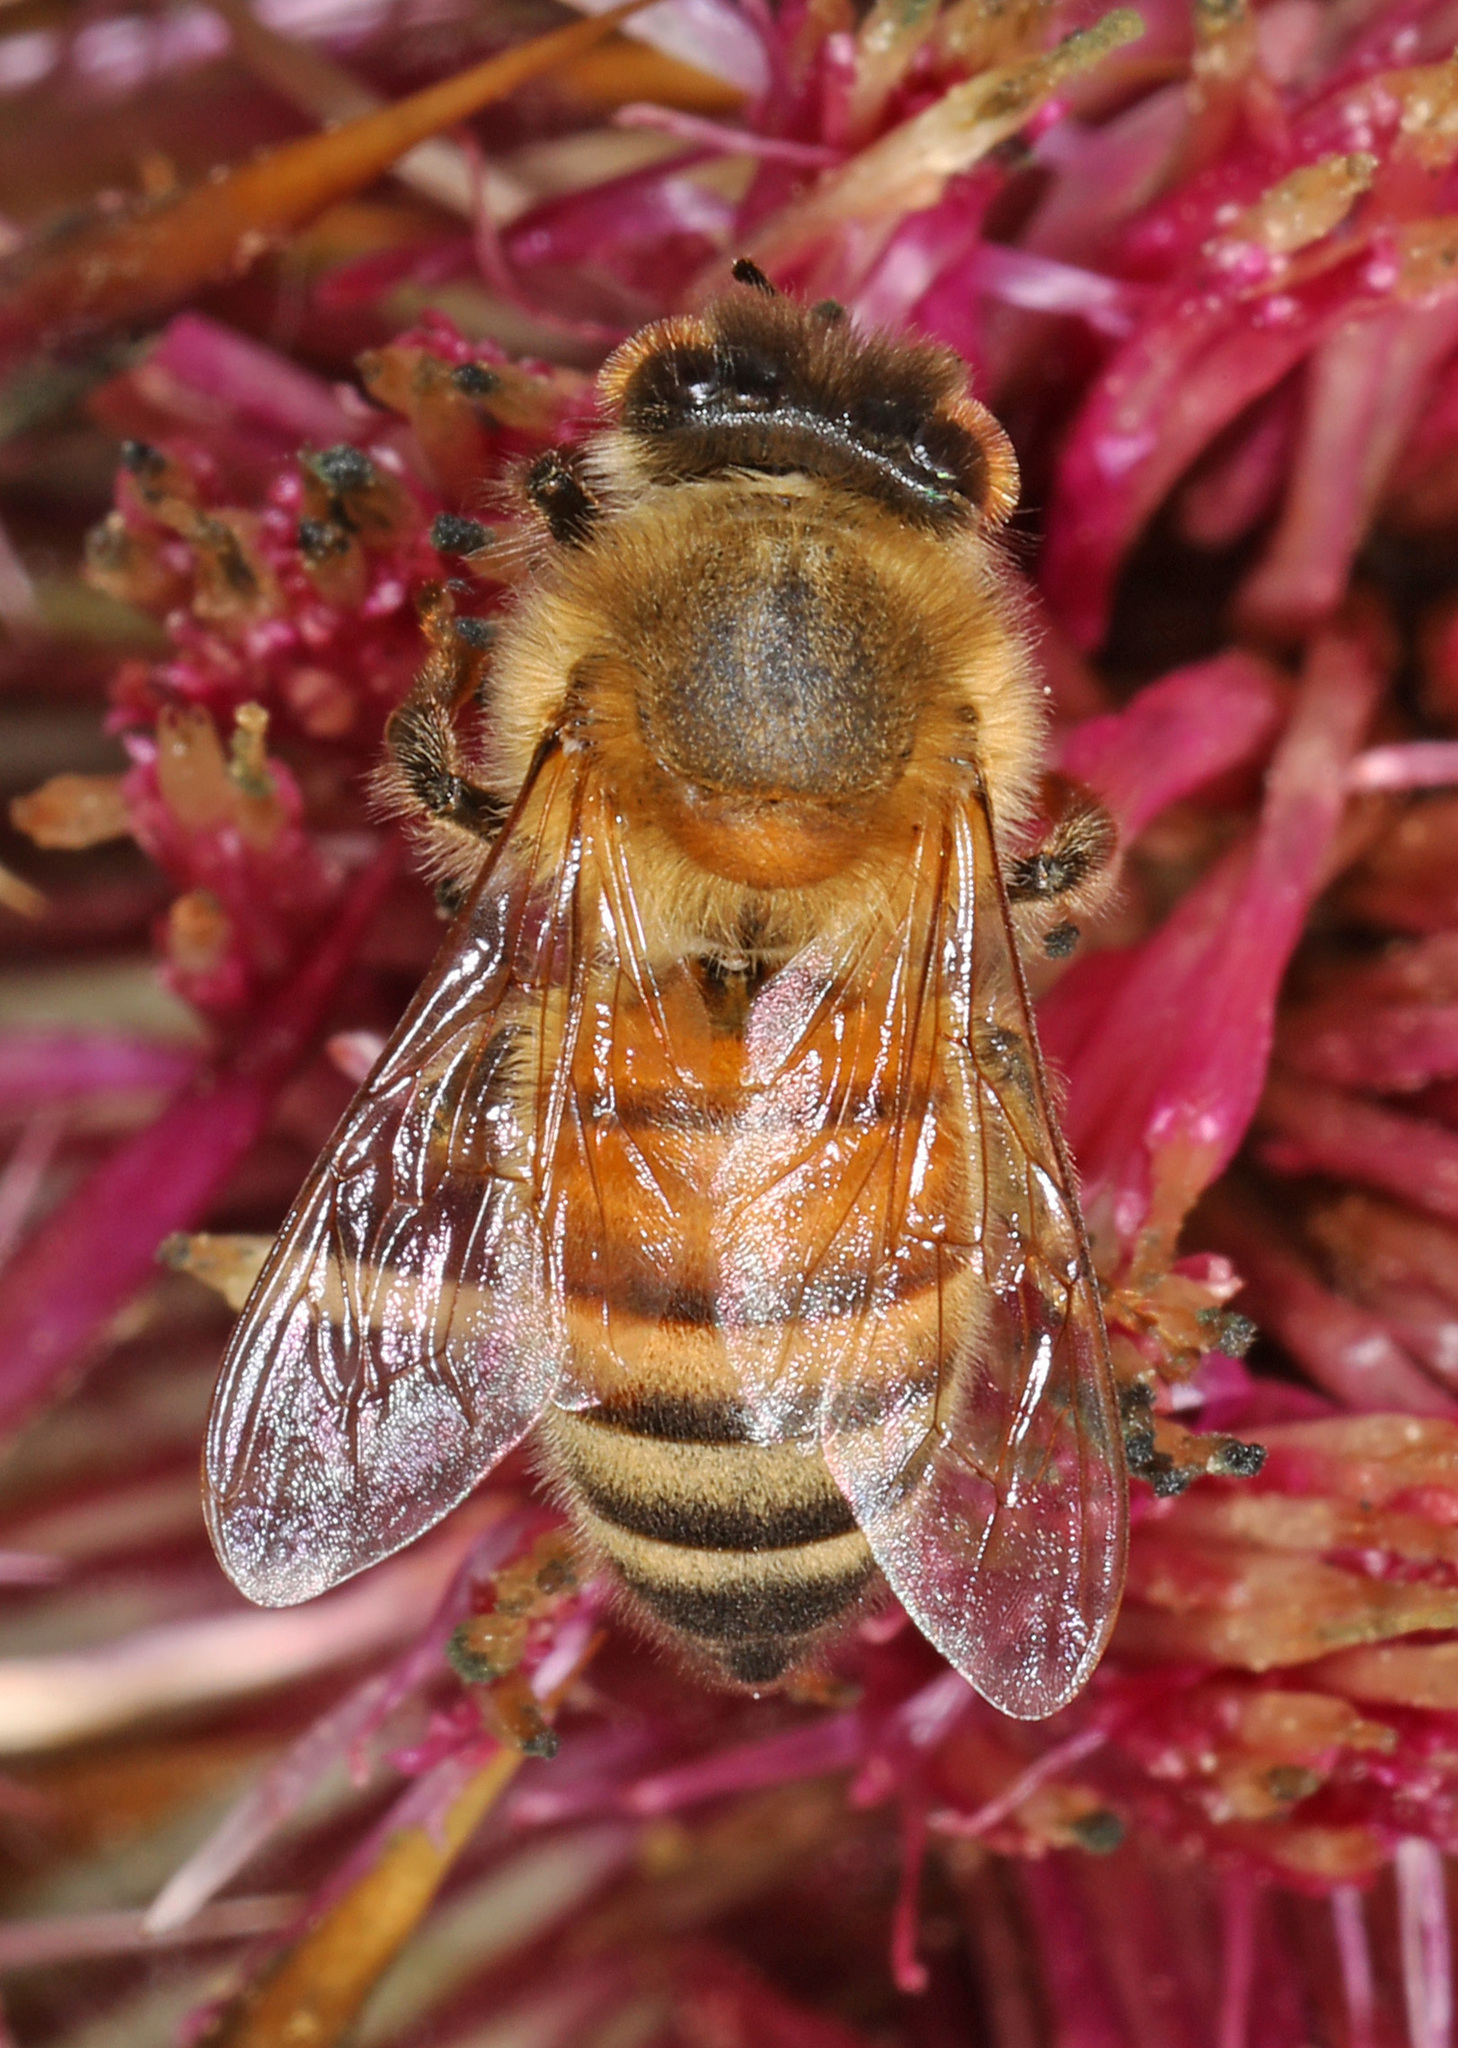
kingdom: Animalia
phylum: Arthropoda
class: Insecta
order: Hymenoptera
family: Apidae
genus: Apis
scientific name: Apis mellifera
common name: Honey bee
